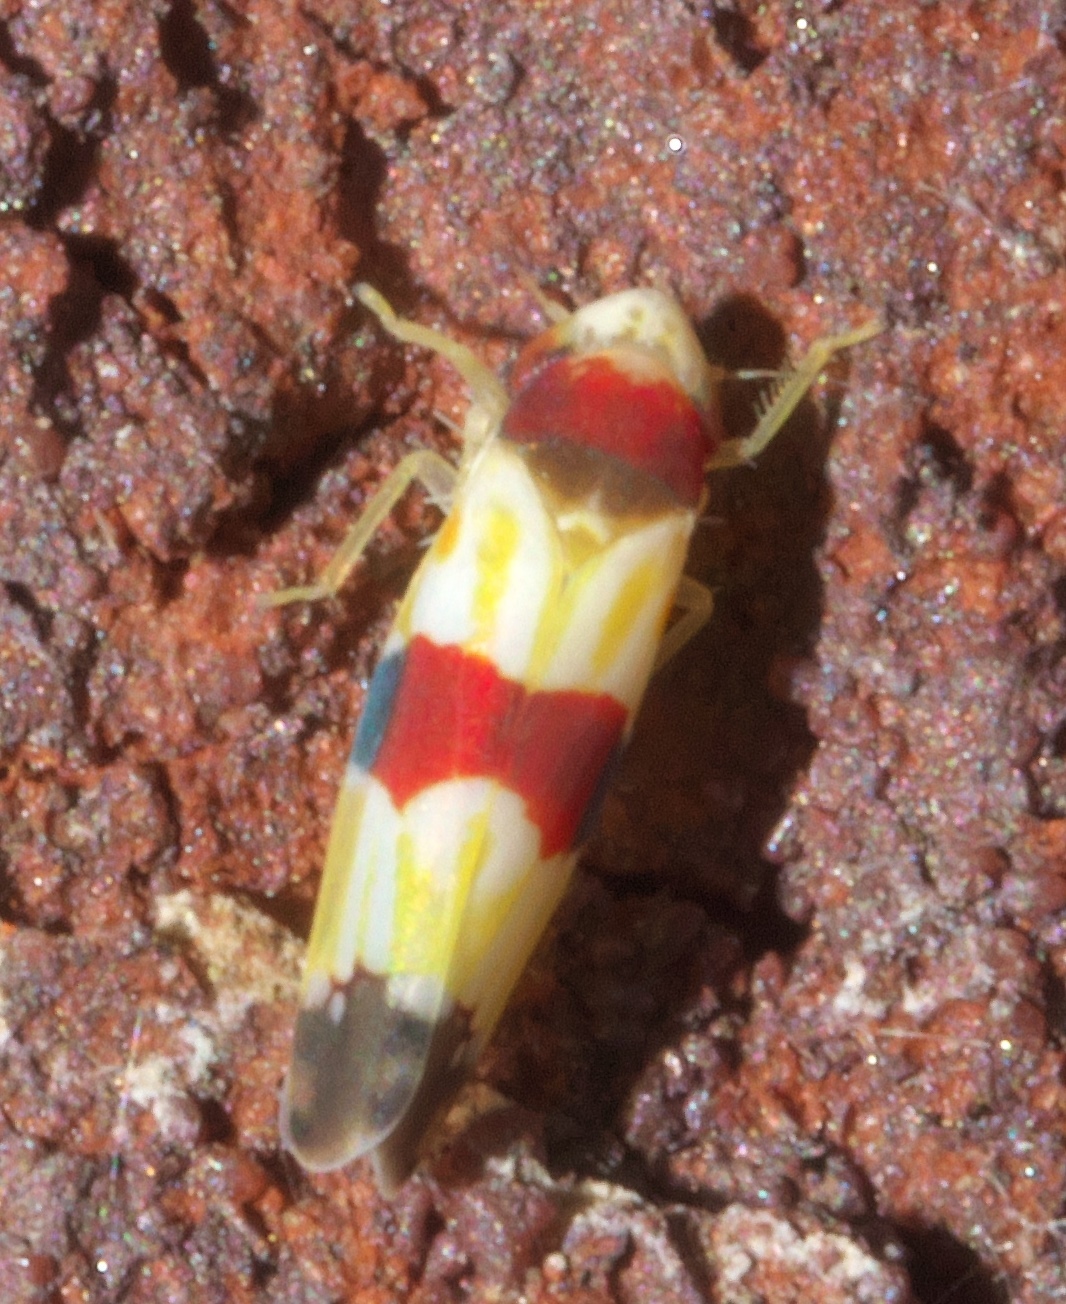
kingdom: Animalia
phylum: Arthropoda
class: Insecta
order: Hemiptera
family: Cicadellidae
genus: Erythroneura
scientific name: Erythroneura diva
